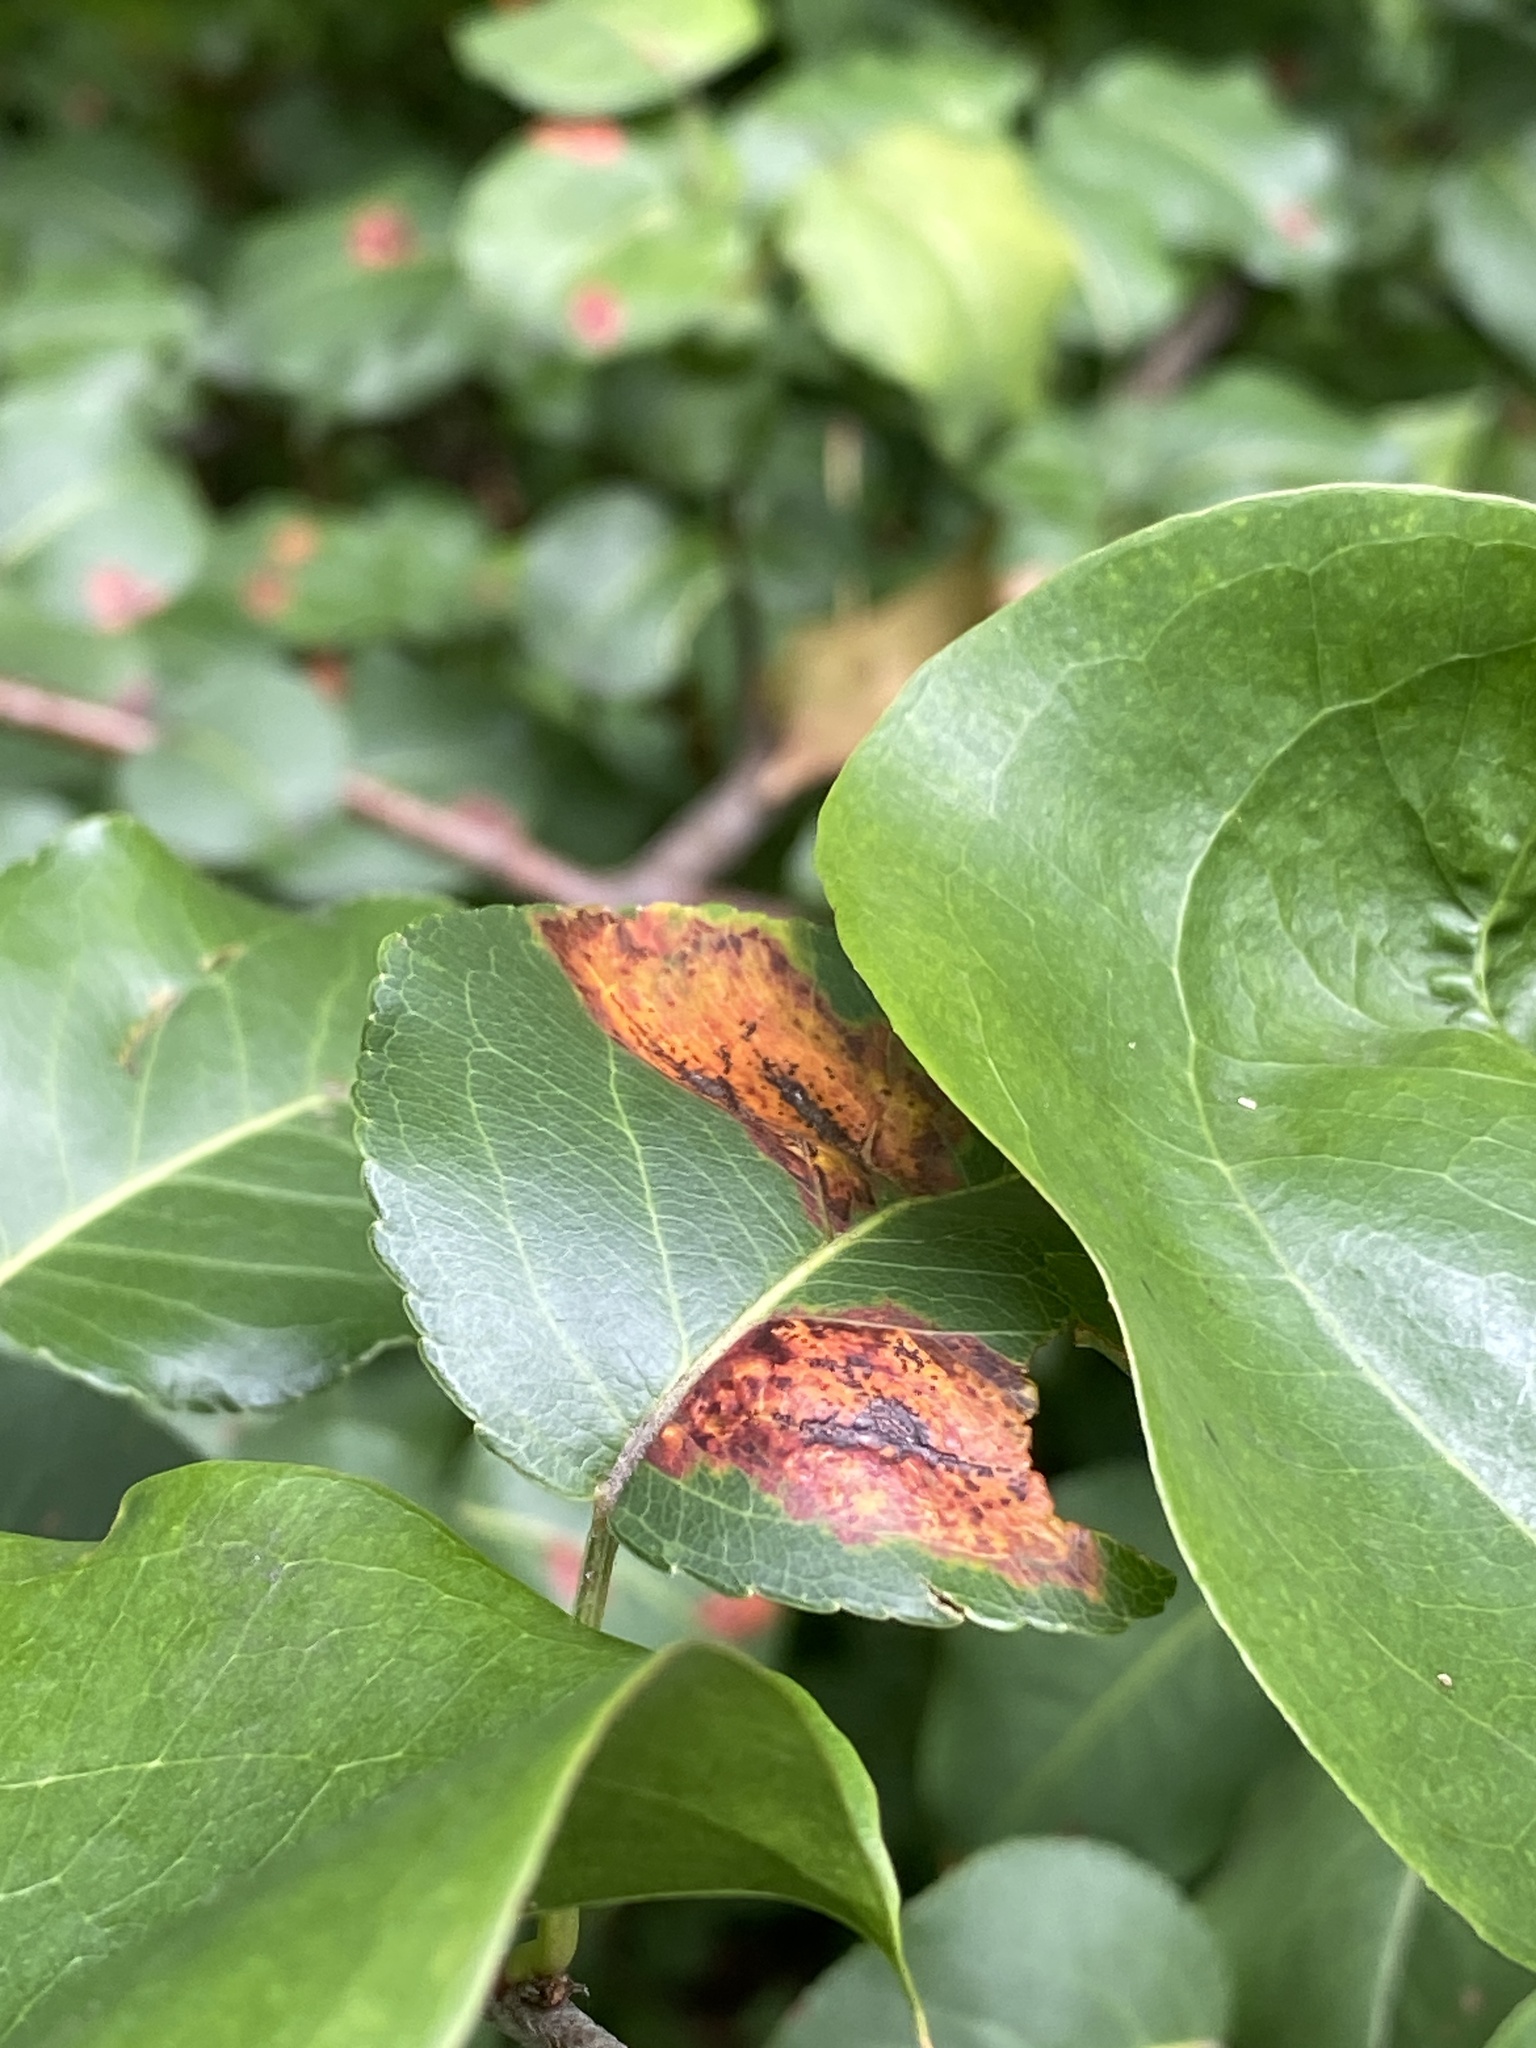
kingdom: Fungi
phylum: Basidiomycota
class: Pucciniomycetes
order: Pucciniales
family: Gymnosporangiaceae
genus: Gymnosporangium
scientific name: Gymnosporangium sabinae
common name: Pear trellis rust fungus
